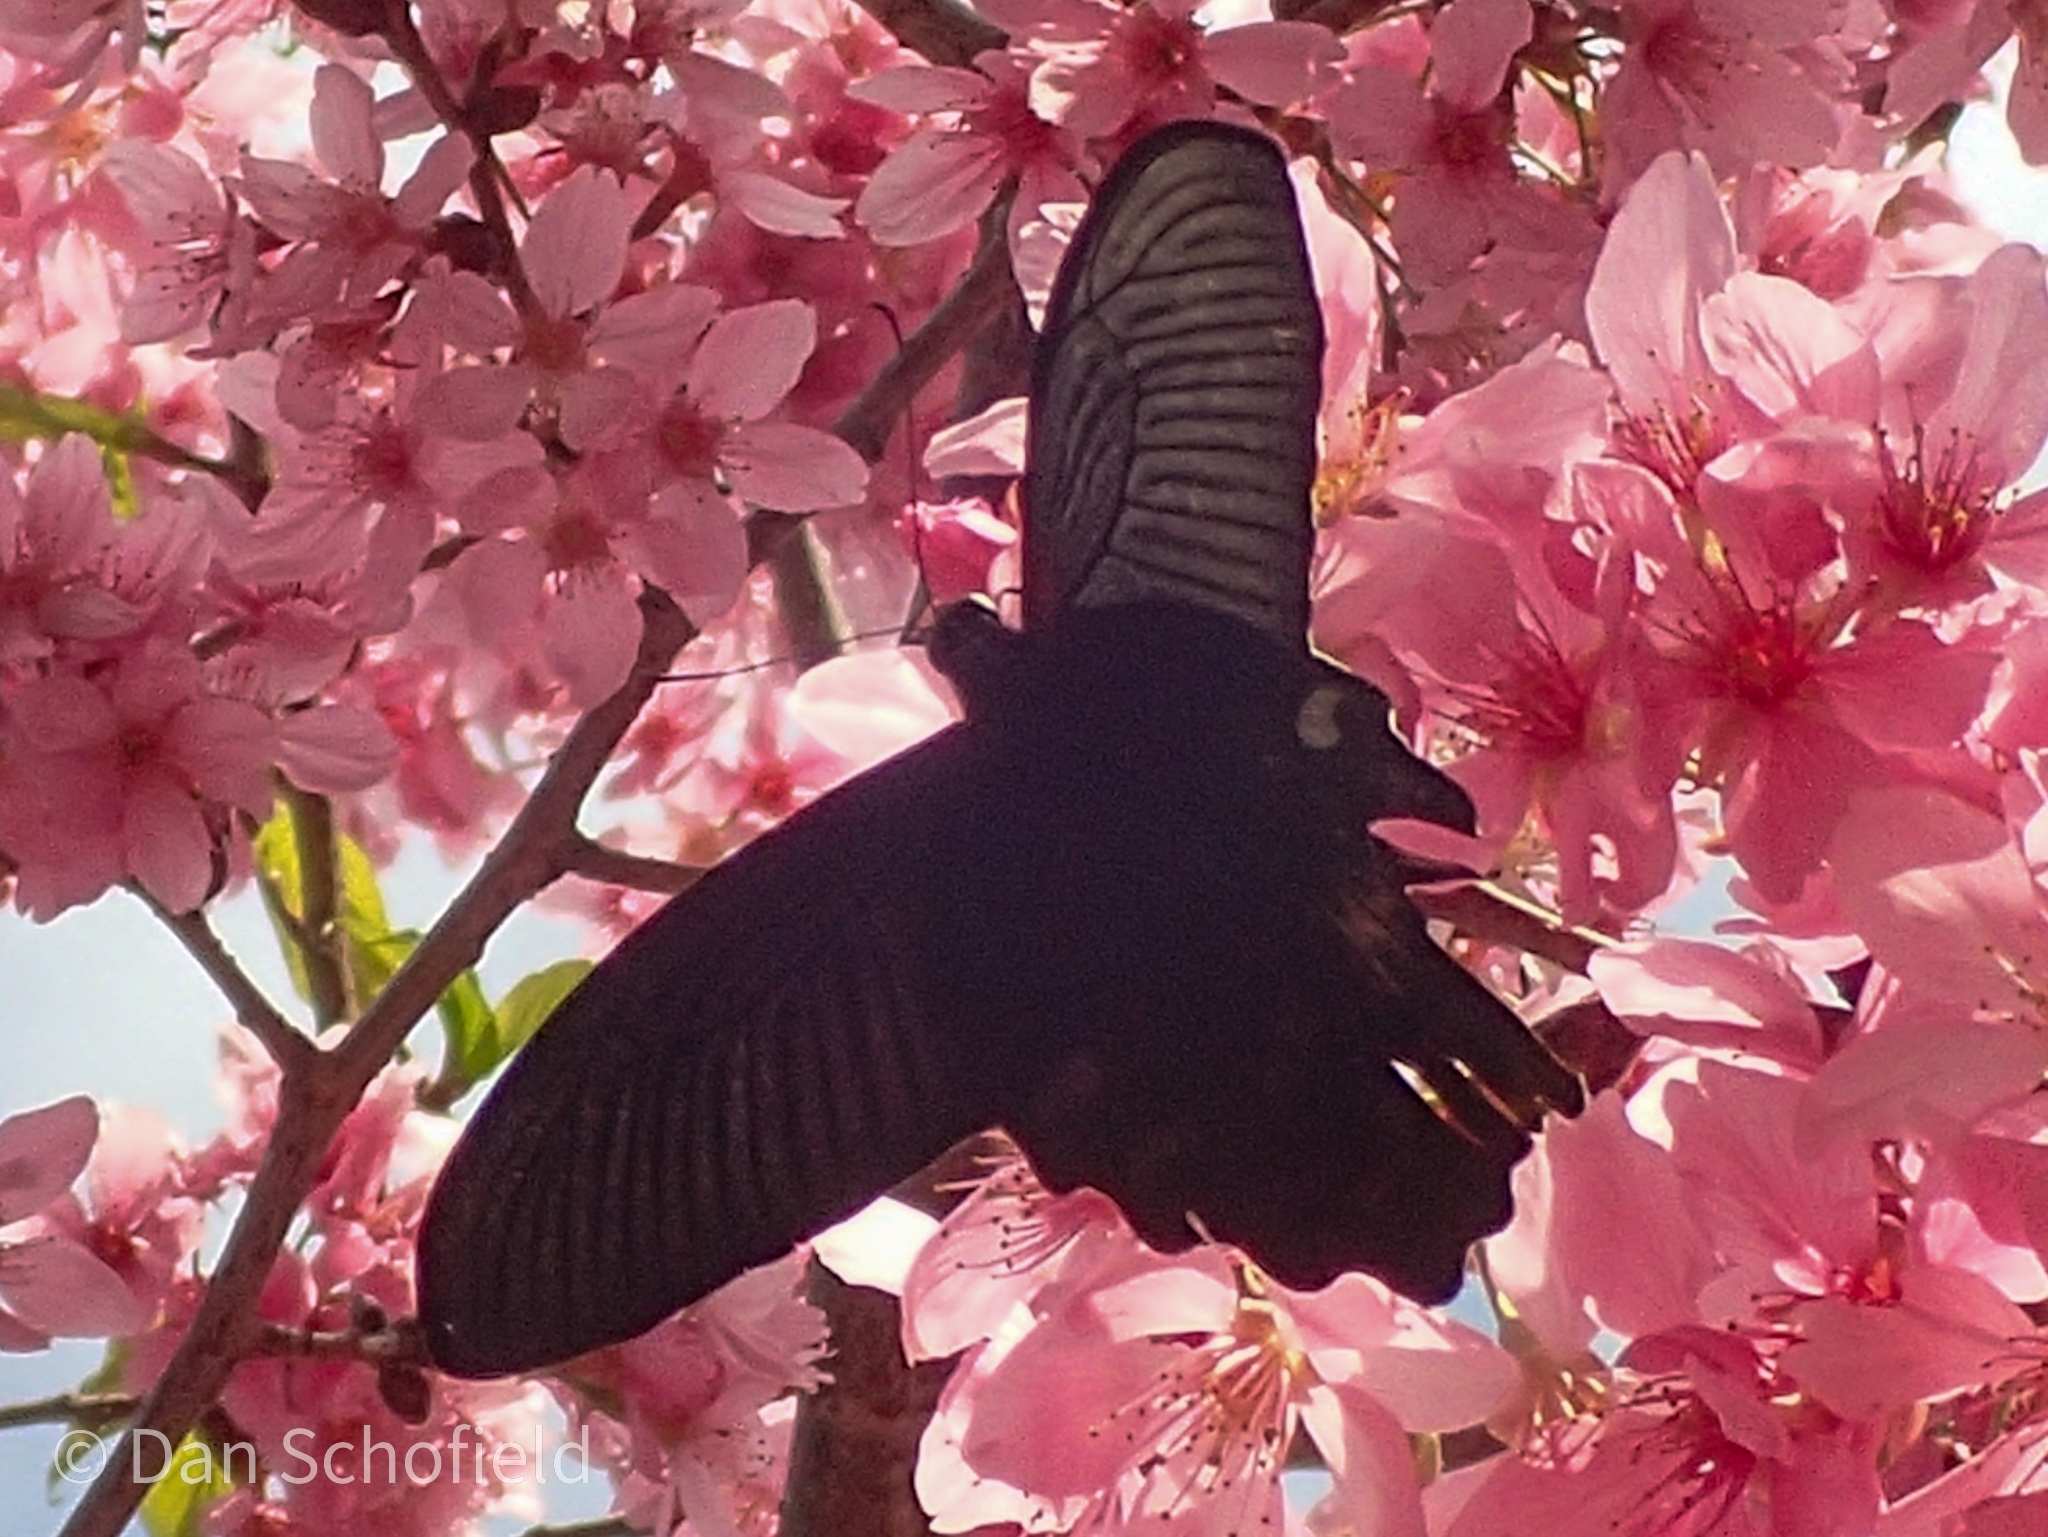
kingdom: Animalia
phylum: Arthropoda
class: Insecta
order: Lepidoptera
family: Papilionidae
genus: Papilio
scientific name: Papilio thaiwanus
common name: Formosan swallowtail
